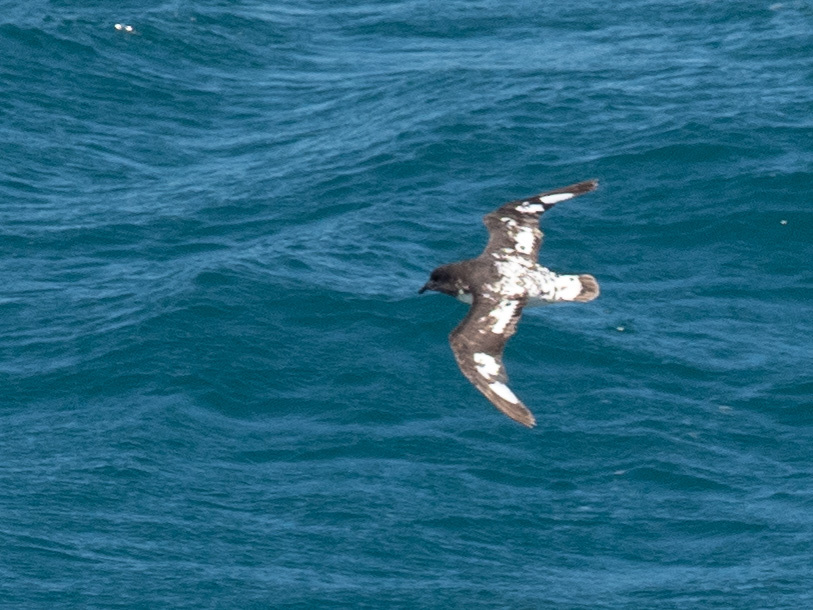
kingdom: Animalia
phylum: Chordata
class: Aves
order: Procellariiformes
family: Procellariidae
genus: Daption
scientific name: Daption capense
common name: Cape petrel
